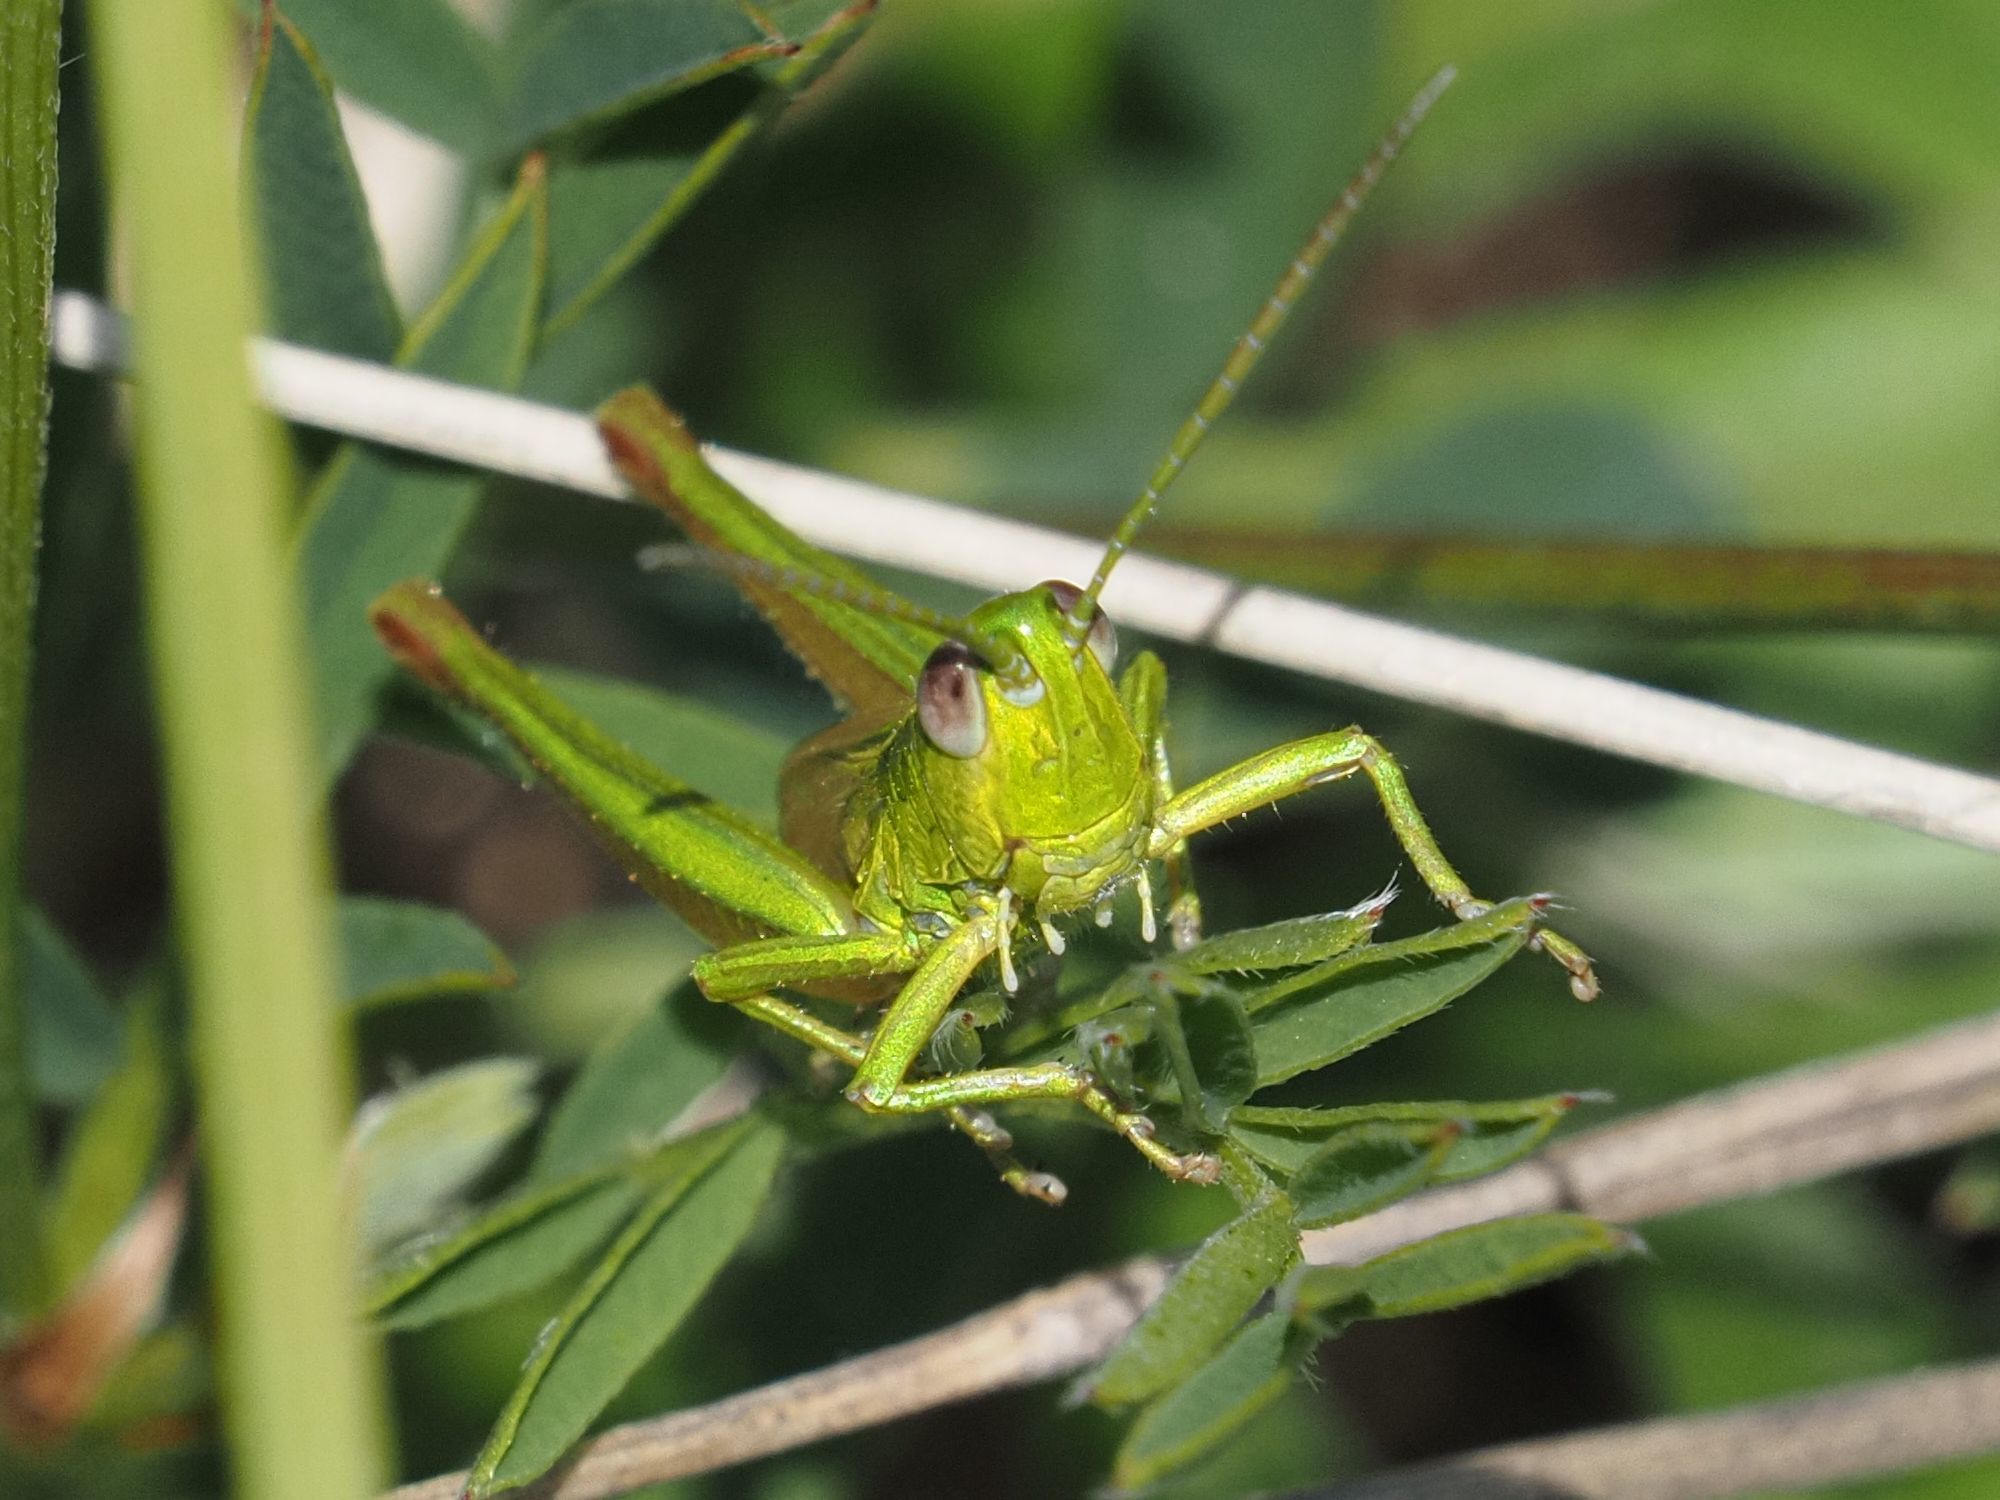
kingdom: Animalia
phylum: Arthropoda
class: Insecta
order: Orthoptera
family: Acrididae
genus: Euthystira
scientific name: Euthystira brachyptera
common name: Small gold grasshopper
